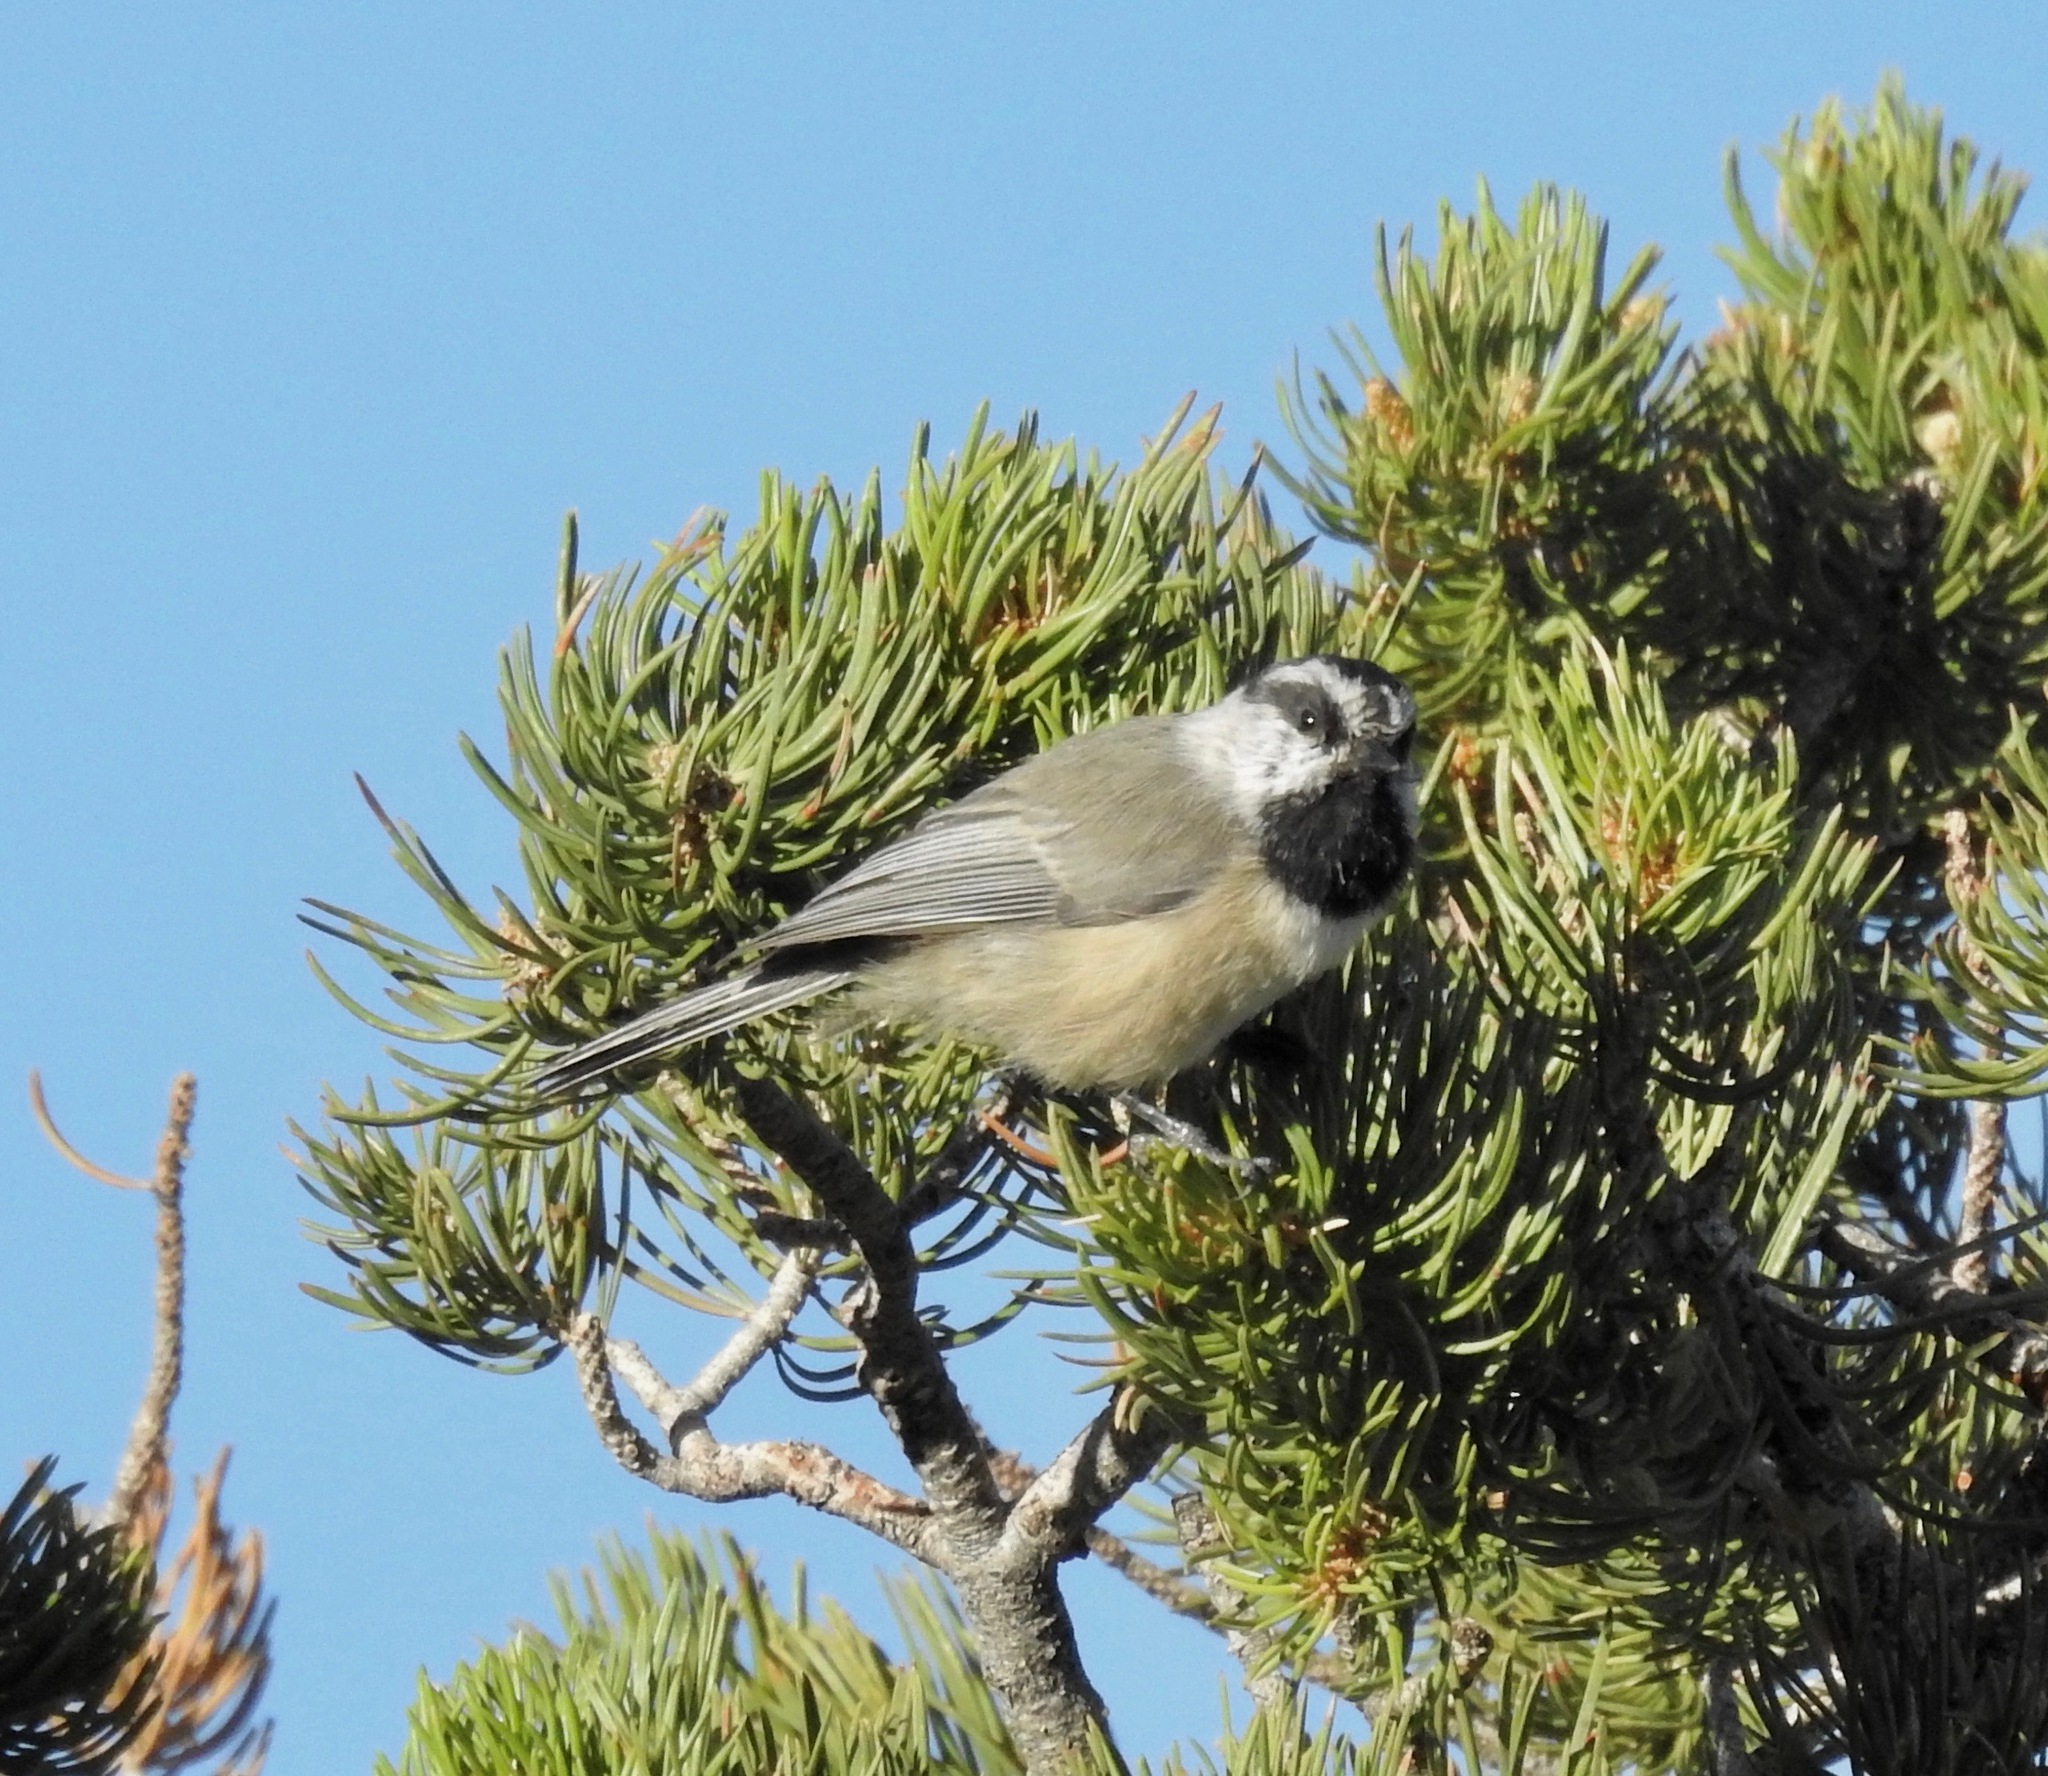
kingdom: Animalia
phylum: Chordata
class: Aves
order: Passeriformes
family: Paridae
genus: Poecile
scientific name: Poecile gambeli
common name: Mountain chickadee
